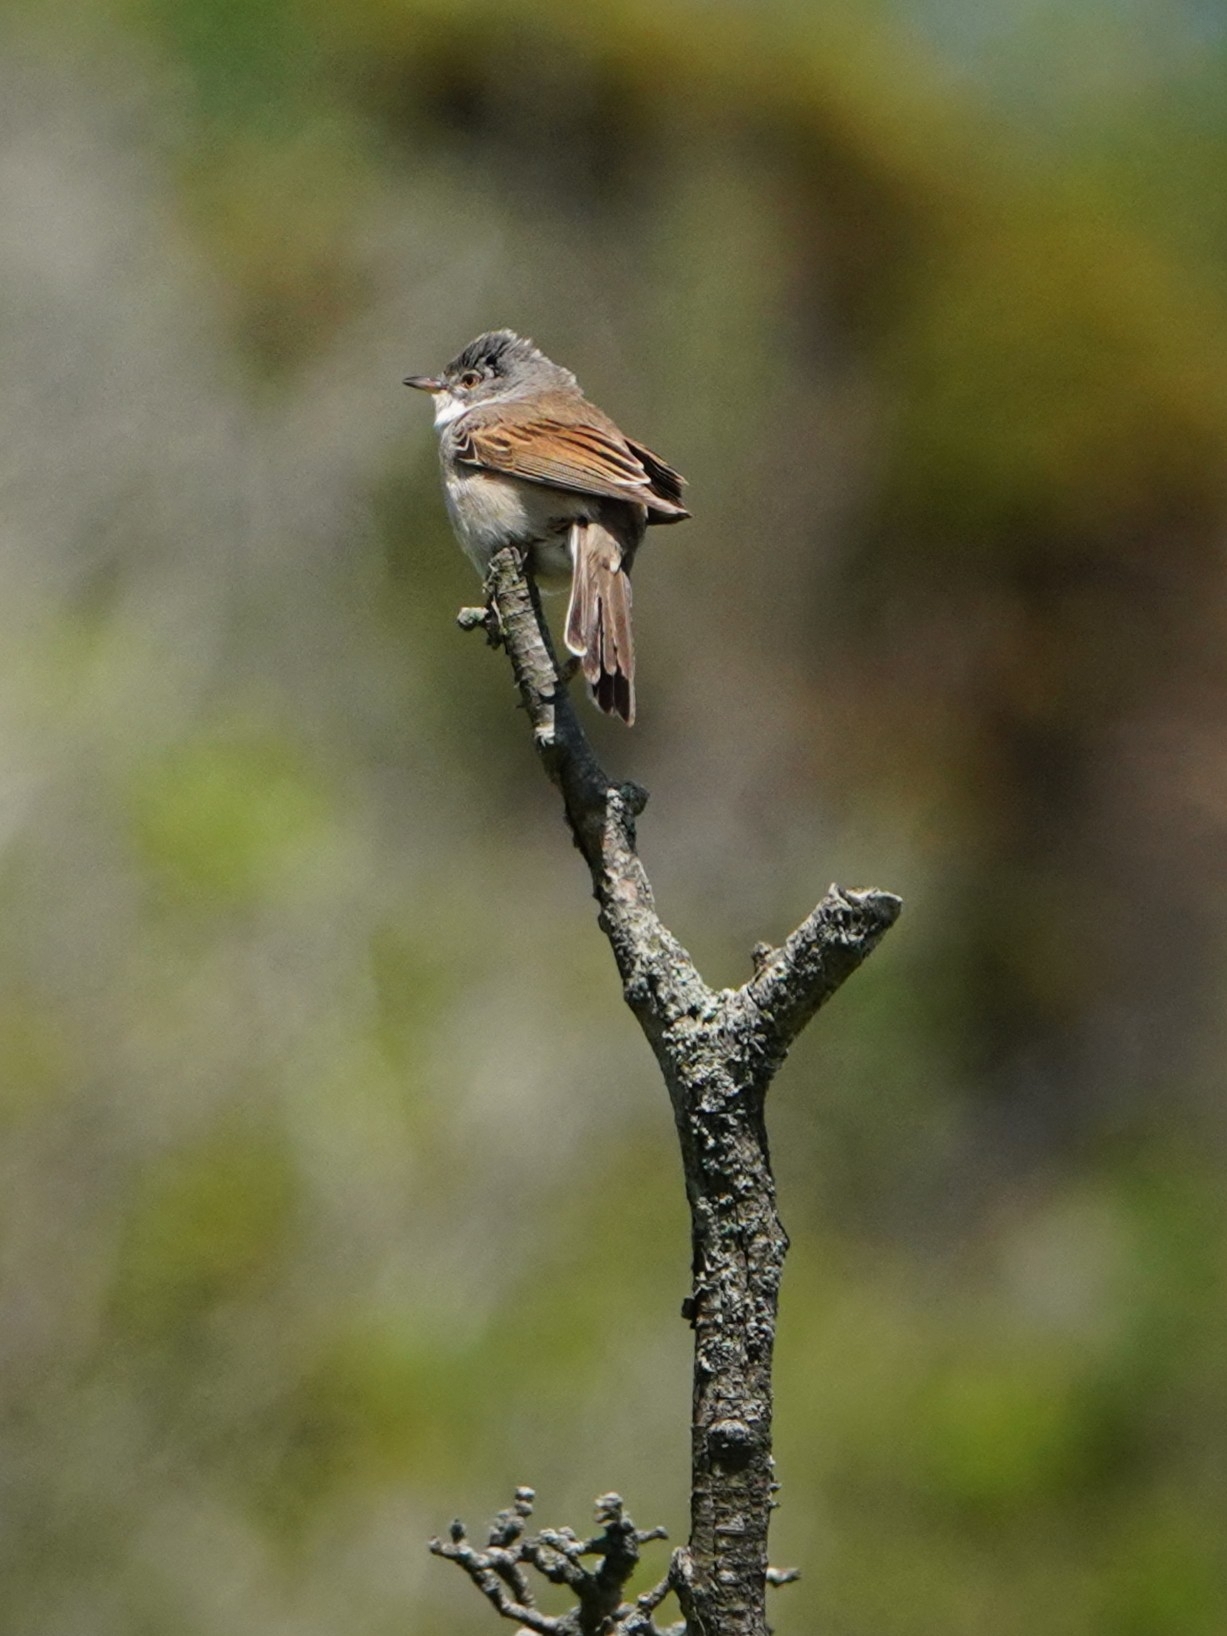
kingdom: Animalia
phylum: Chordata
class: Aves
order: Passeriformes
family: Sylviidae
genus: Sylvia
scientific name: Sylvia communis
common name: Common whitethroat
